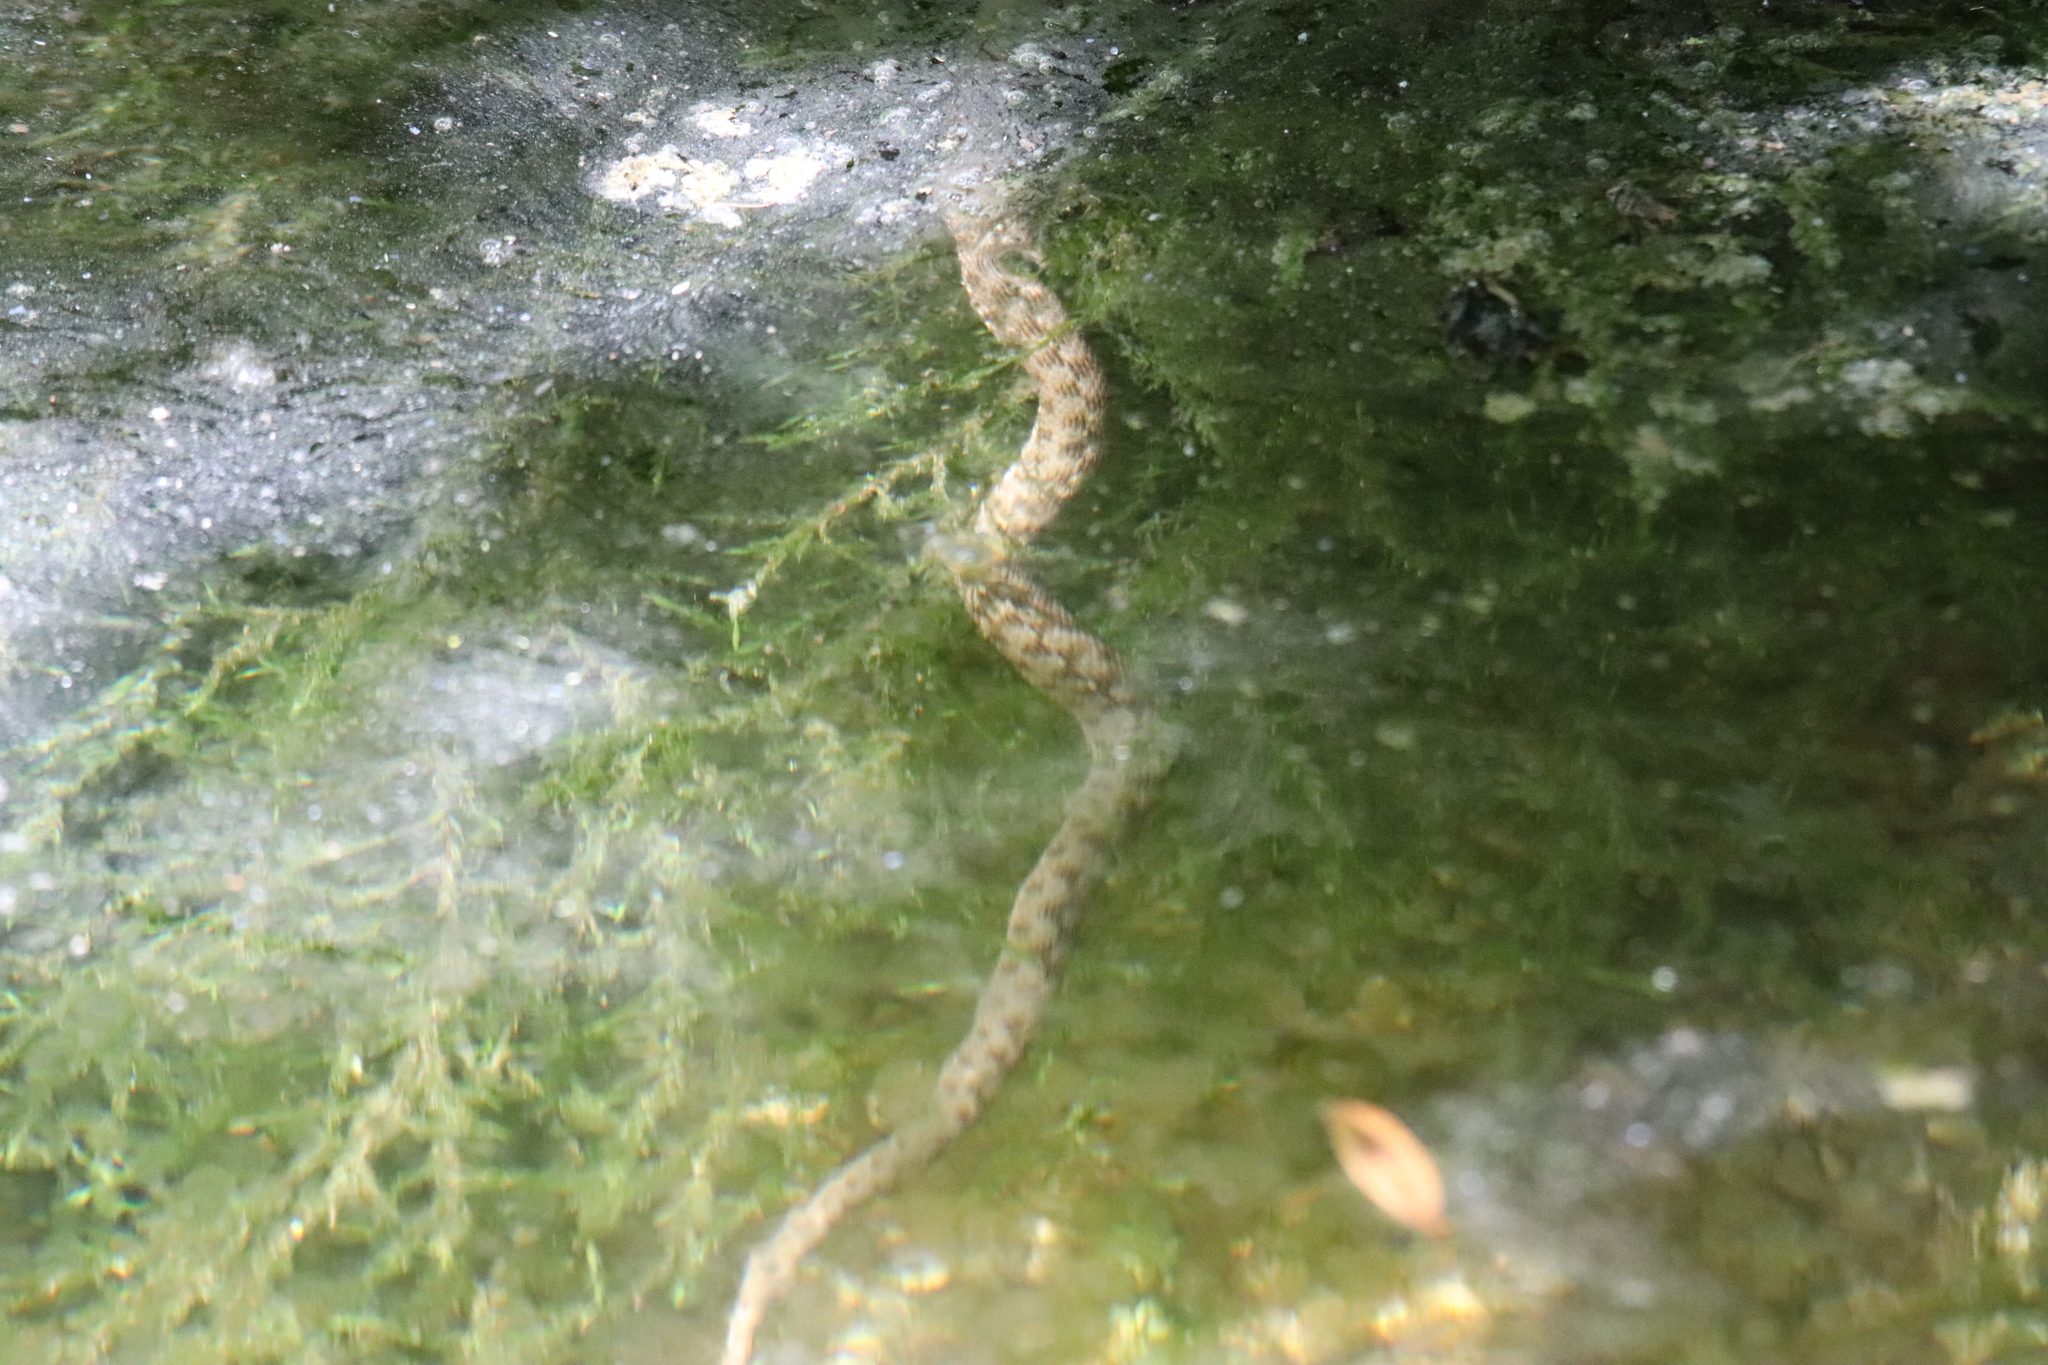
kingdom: Animalia
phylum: Chordata
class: Squamata
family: Colubridae
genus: Natrix
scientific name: Natrix maura
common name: Viperine water snake
